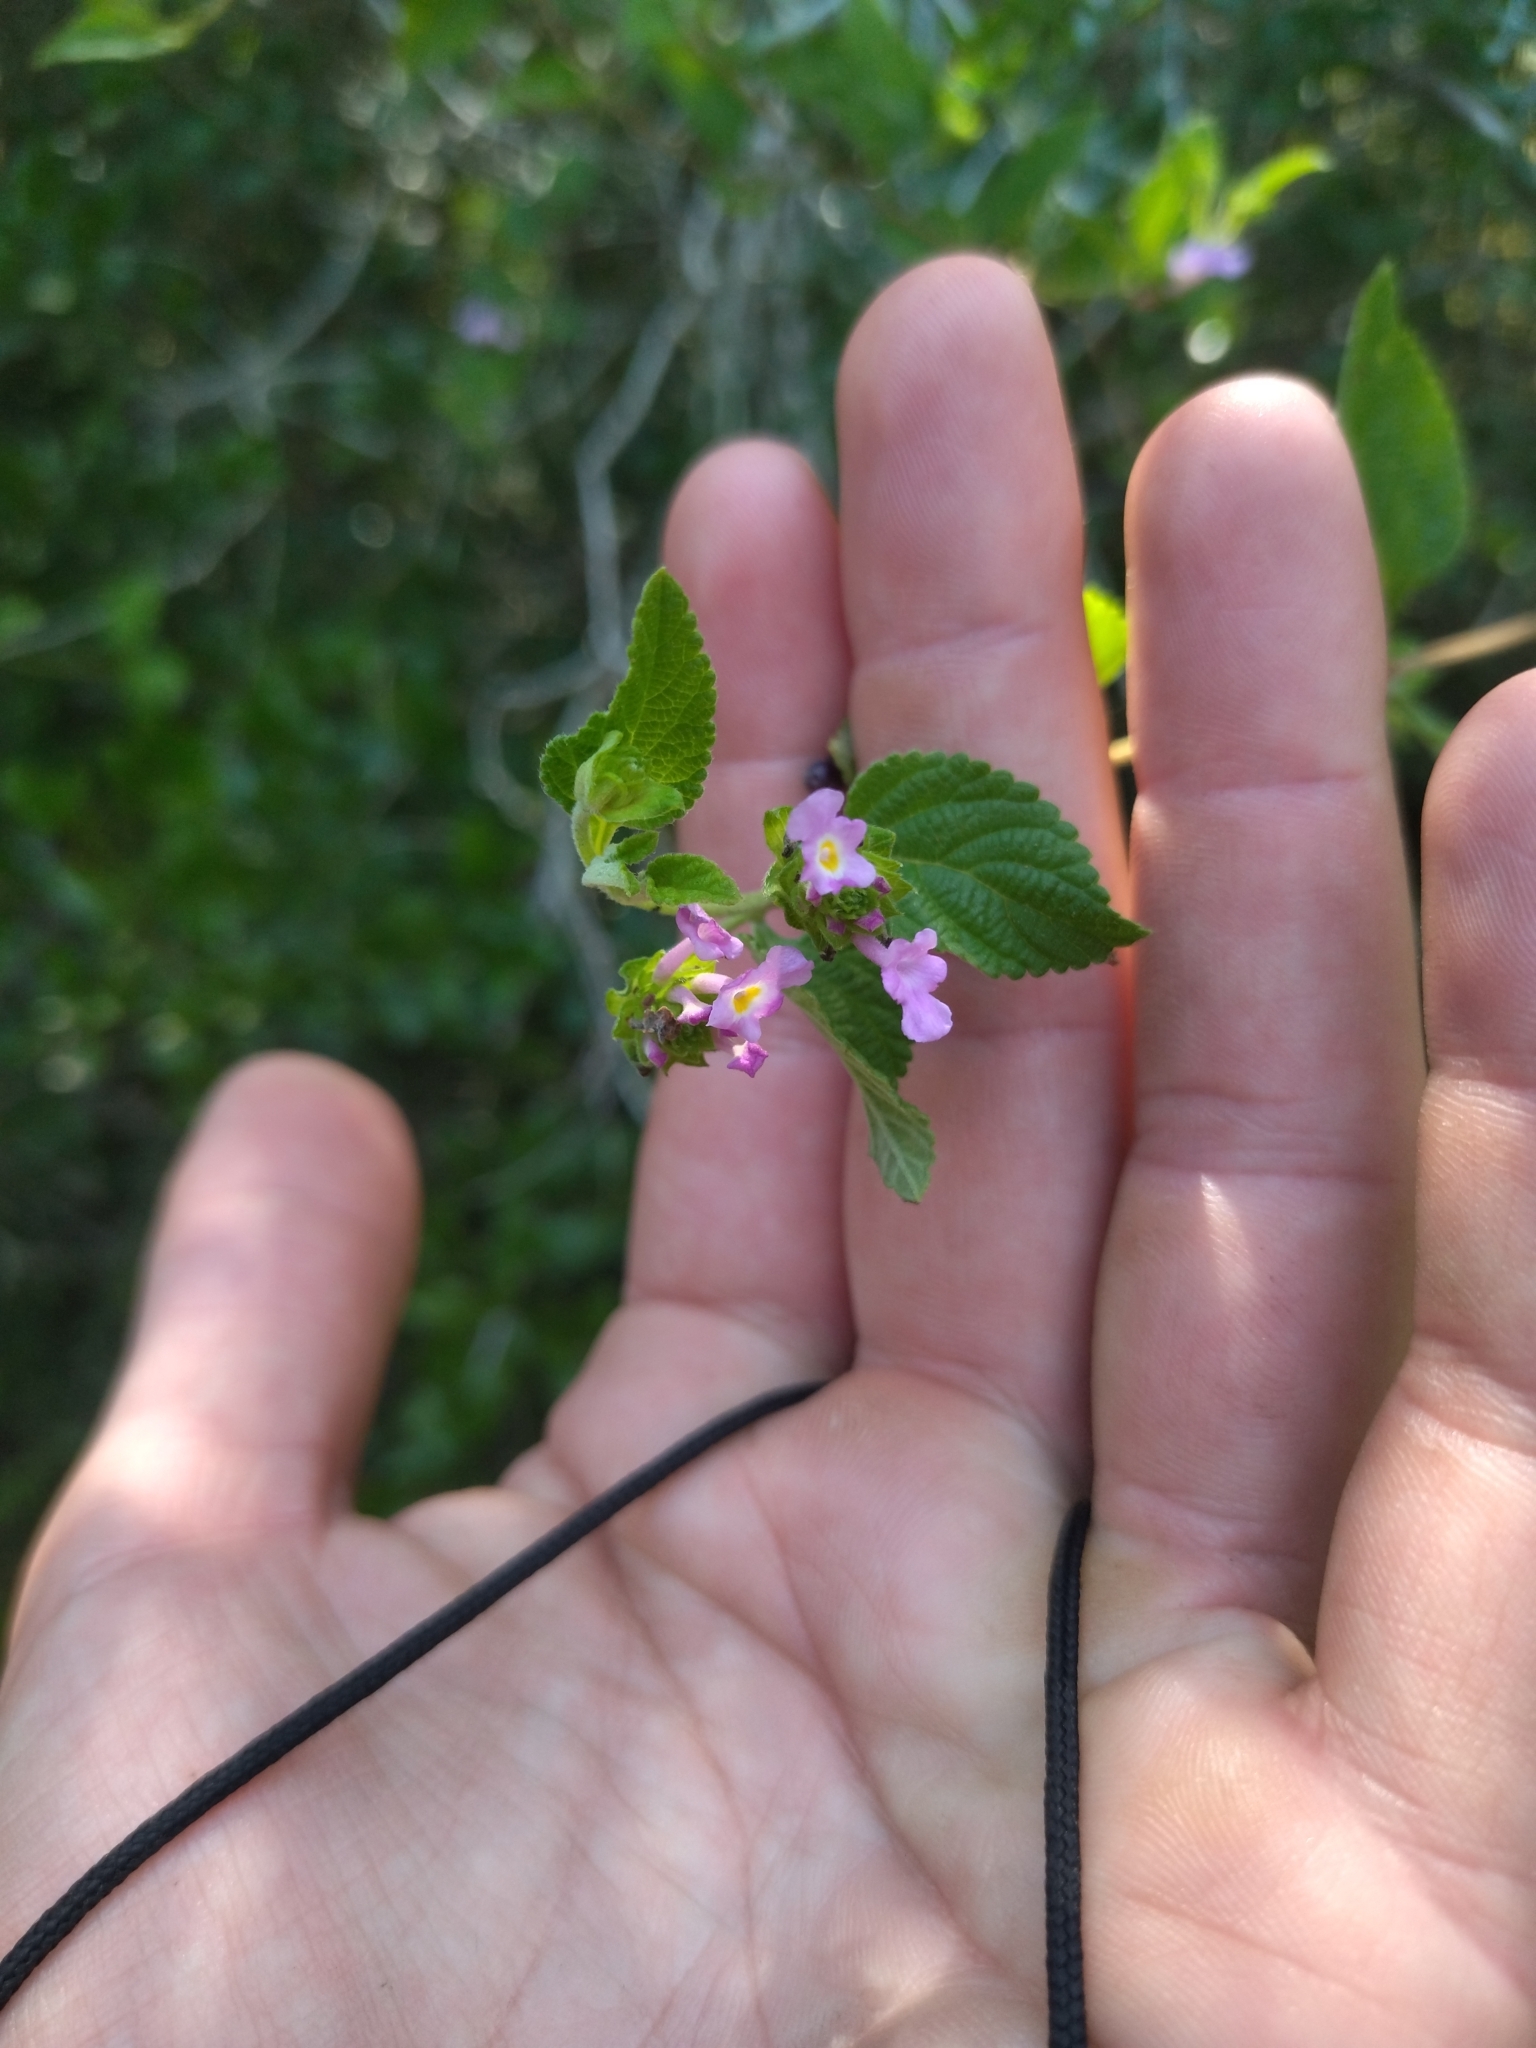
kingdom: Plantae
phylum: Tracheophyta
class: Magnoliopsida
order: Lamiales
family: Verbenaceae
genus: Lantana
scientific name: Lantana megapotamica
